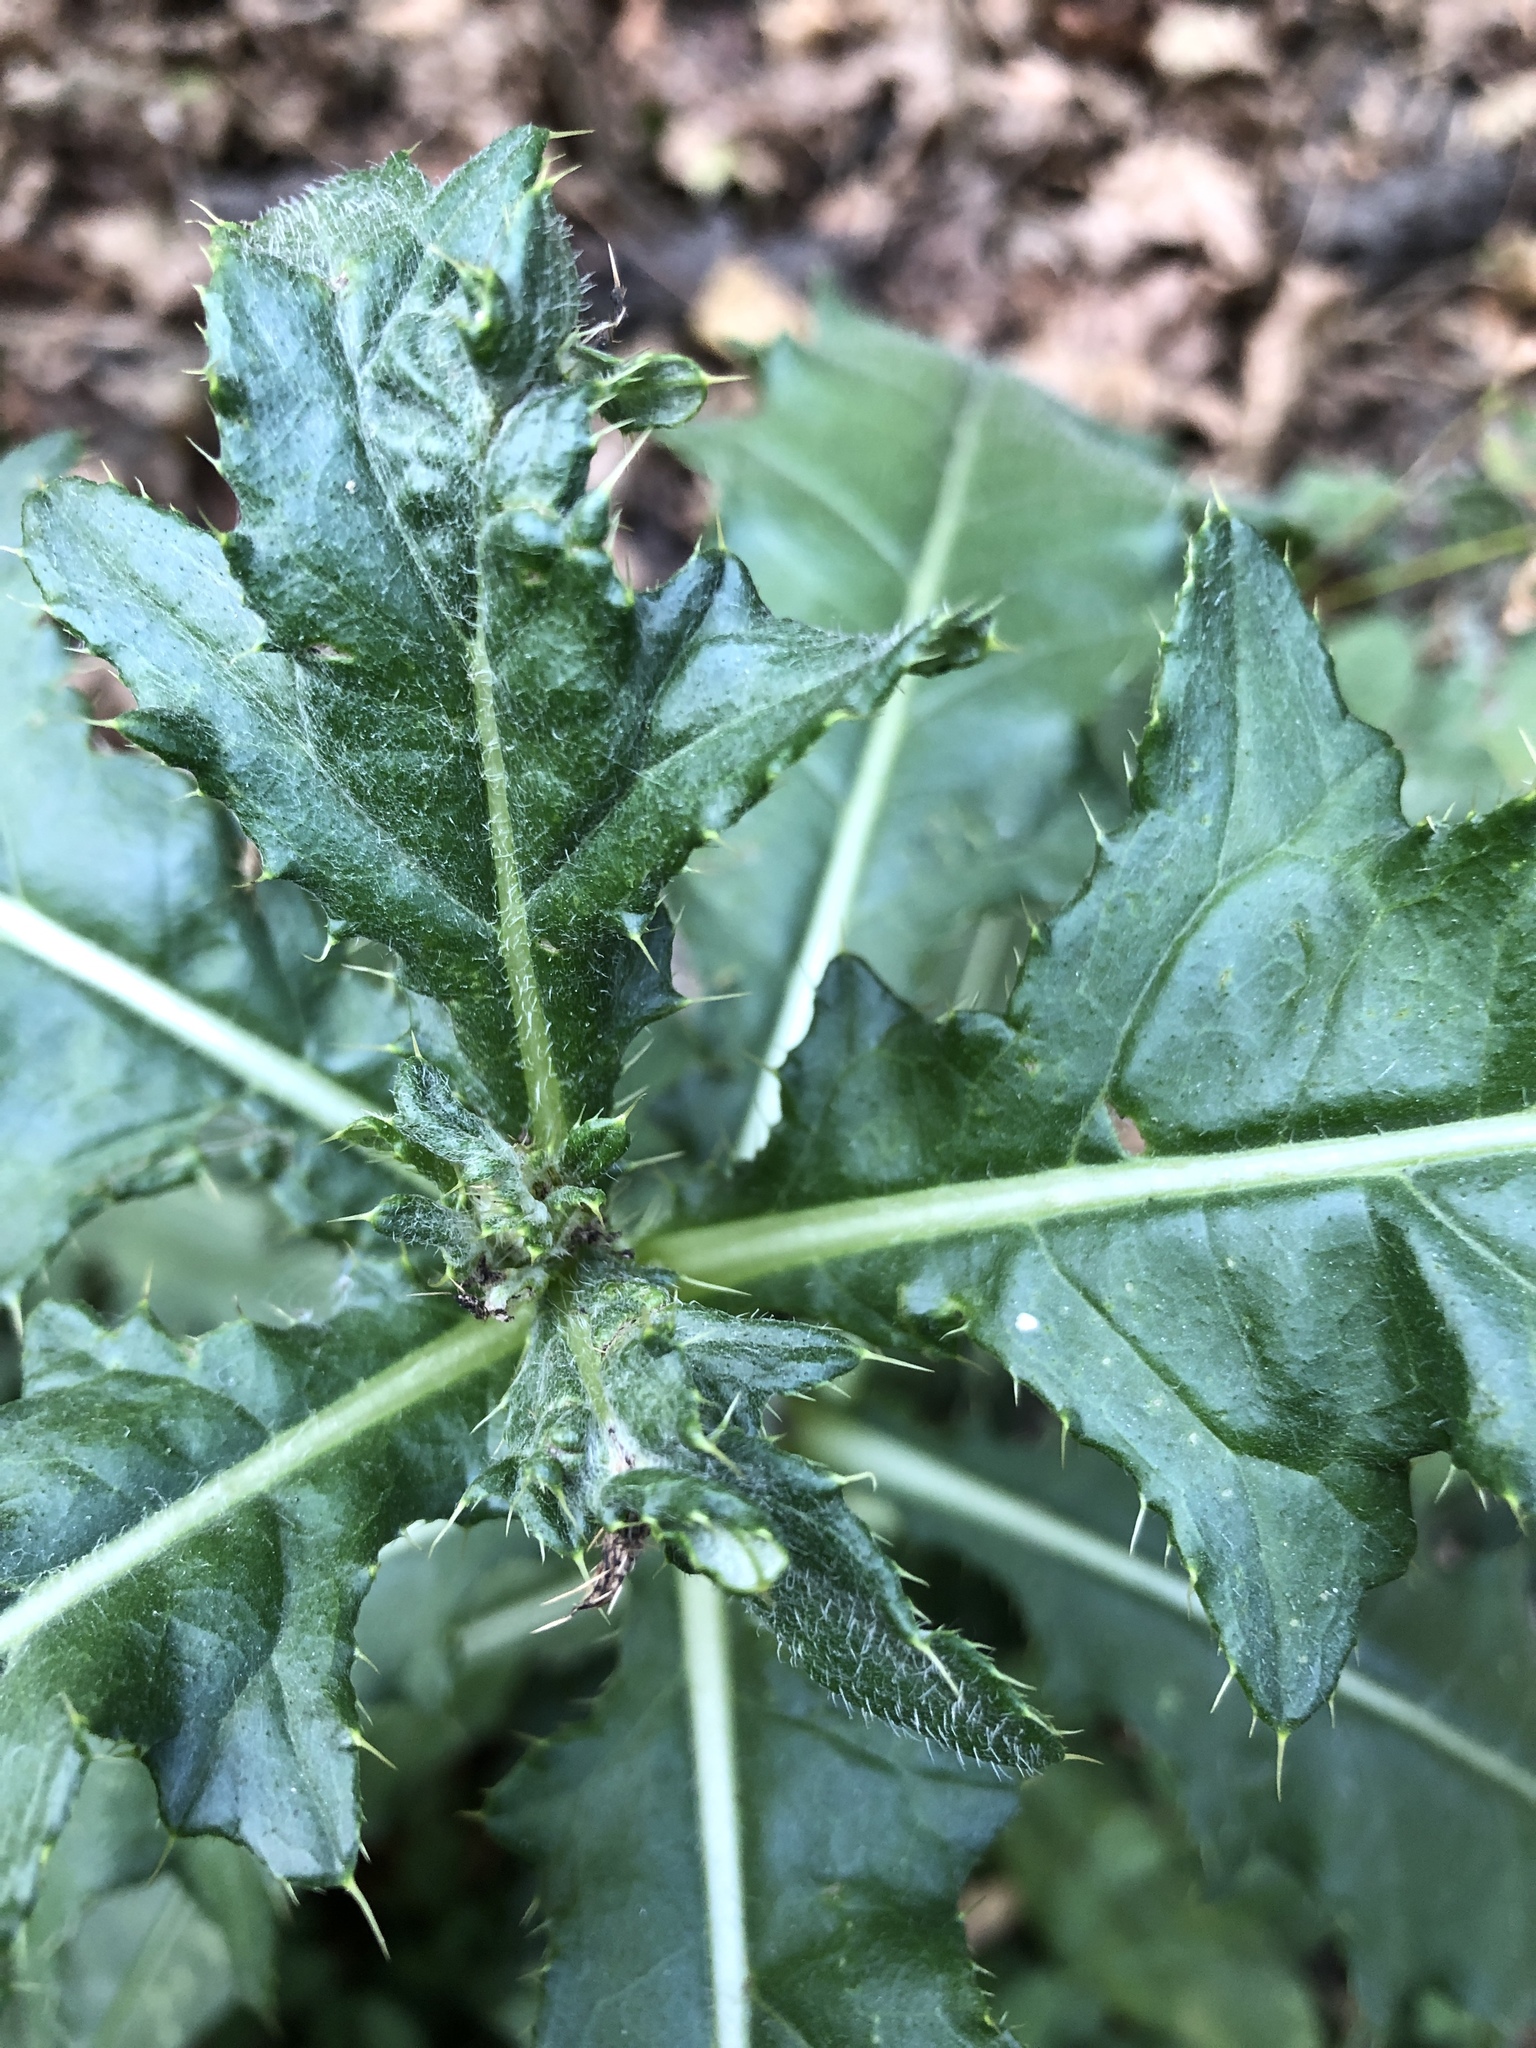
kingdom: Plantae
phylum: Tracheophyta
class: Magnoliopsida
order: Asterales
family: Asteraceae
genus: Cirsium
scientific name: Cirsium arvense
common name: Creeping thistle
